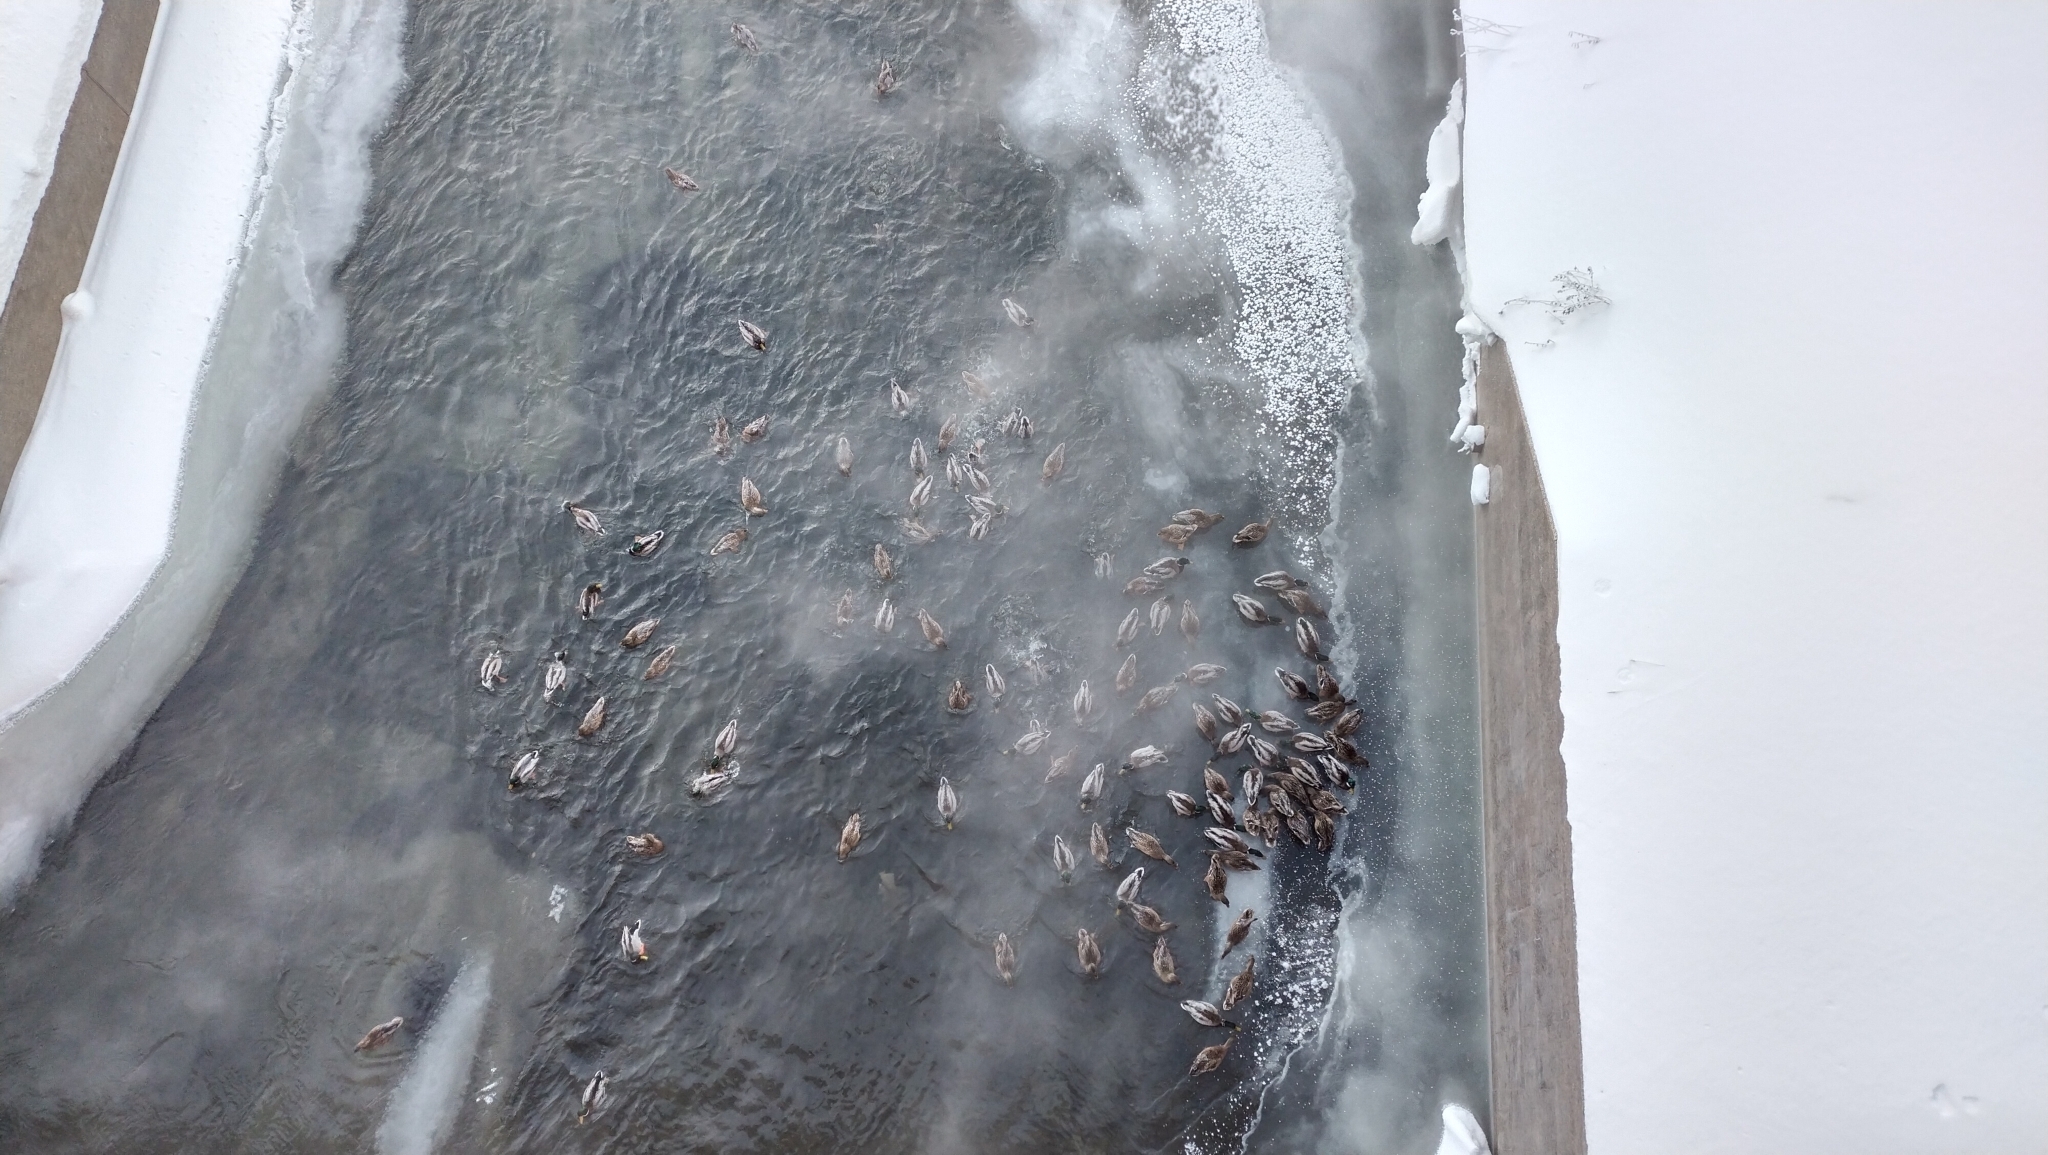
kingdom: Animalia
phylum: Chordata
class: Aves
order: Anseriformes
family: Anatidae
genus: Anas
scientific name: Anas platyrhynchos
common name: Mallard
